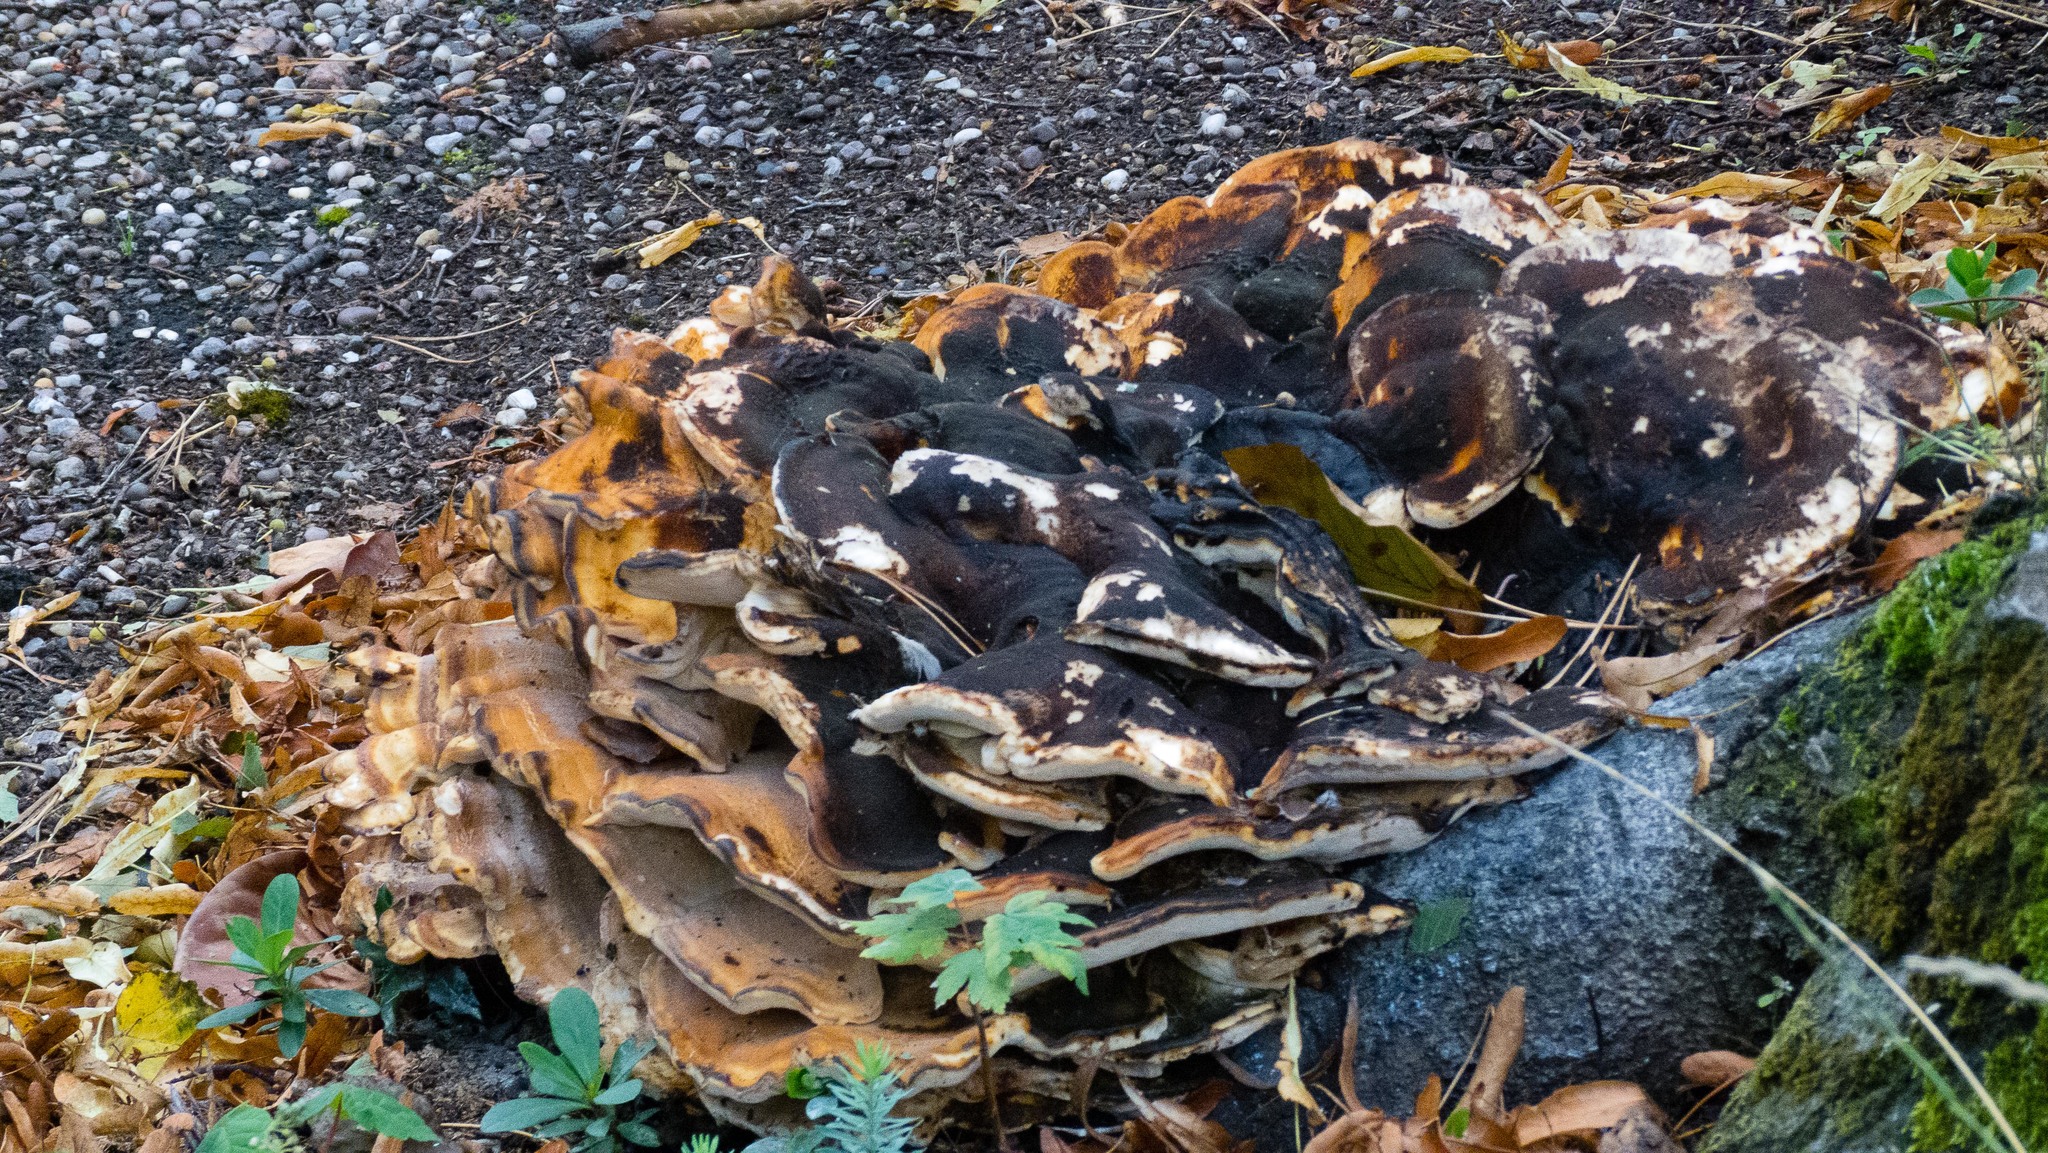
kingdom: Fungi
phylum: Basidiomycota
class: Agaricomycetes
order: Polyporales
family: Meripilaceae
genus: Meripilus
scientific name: Meripilus giganteus
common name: Giant polypore
